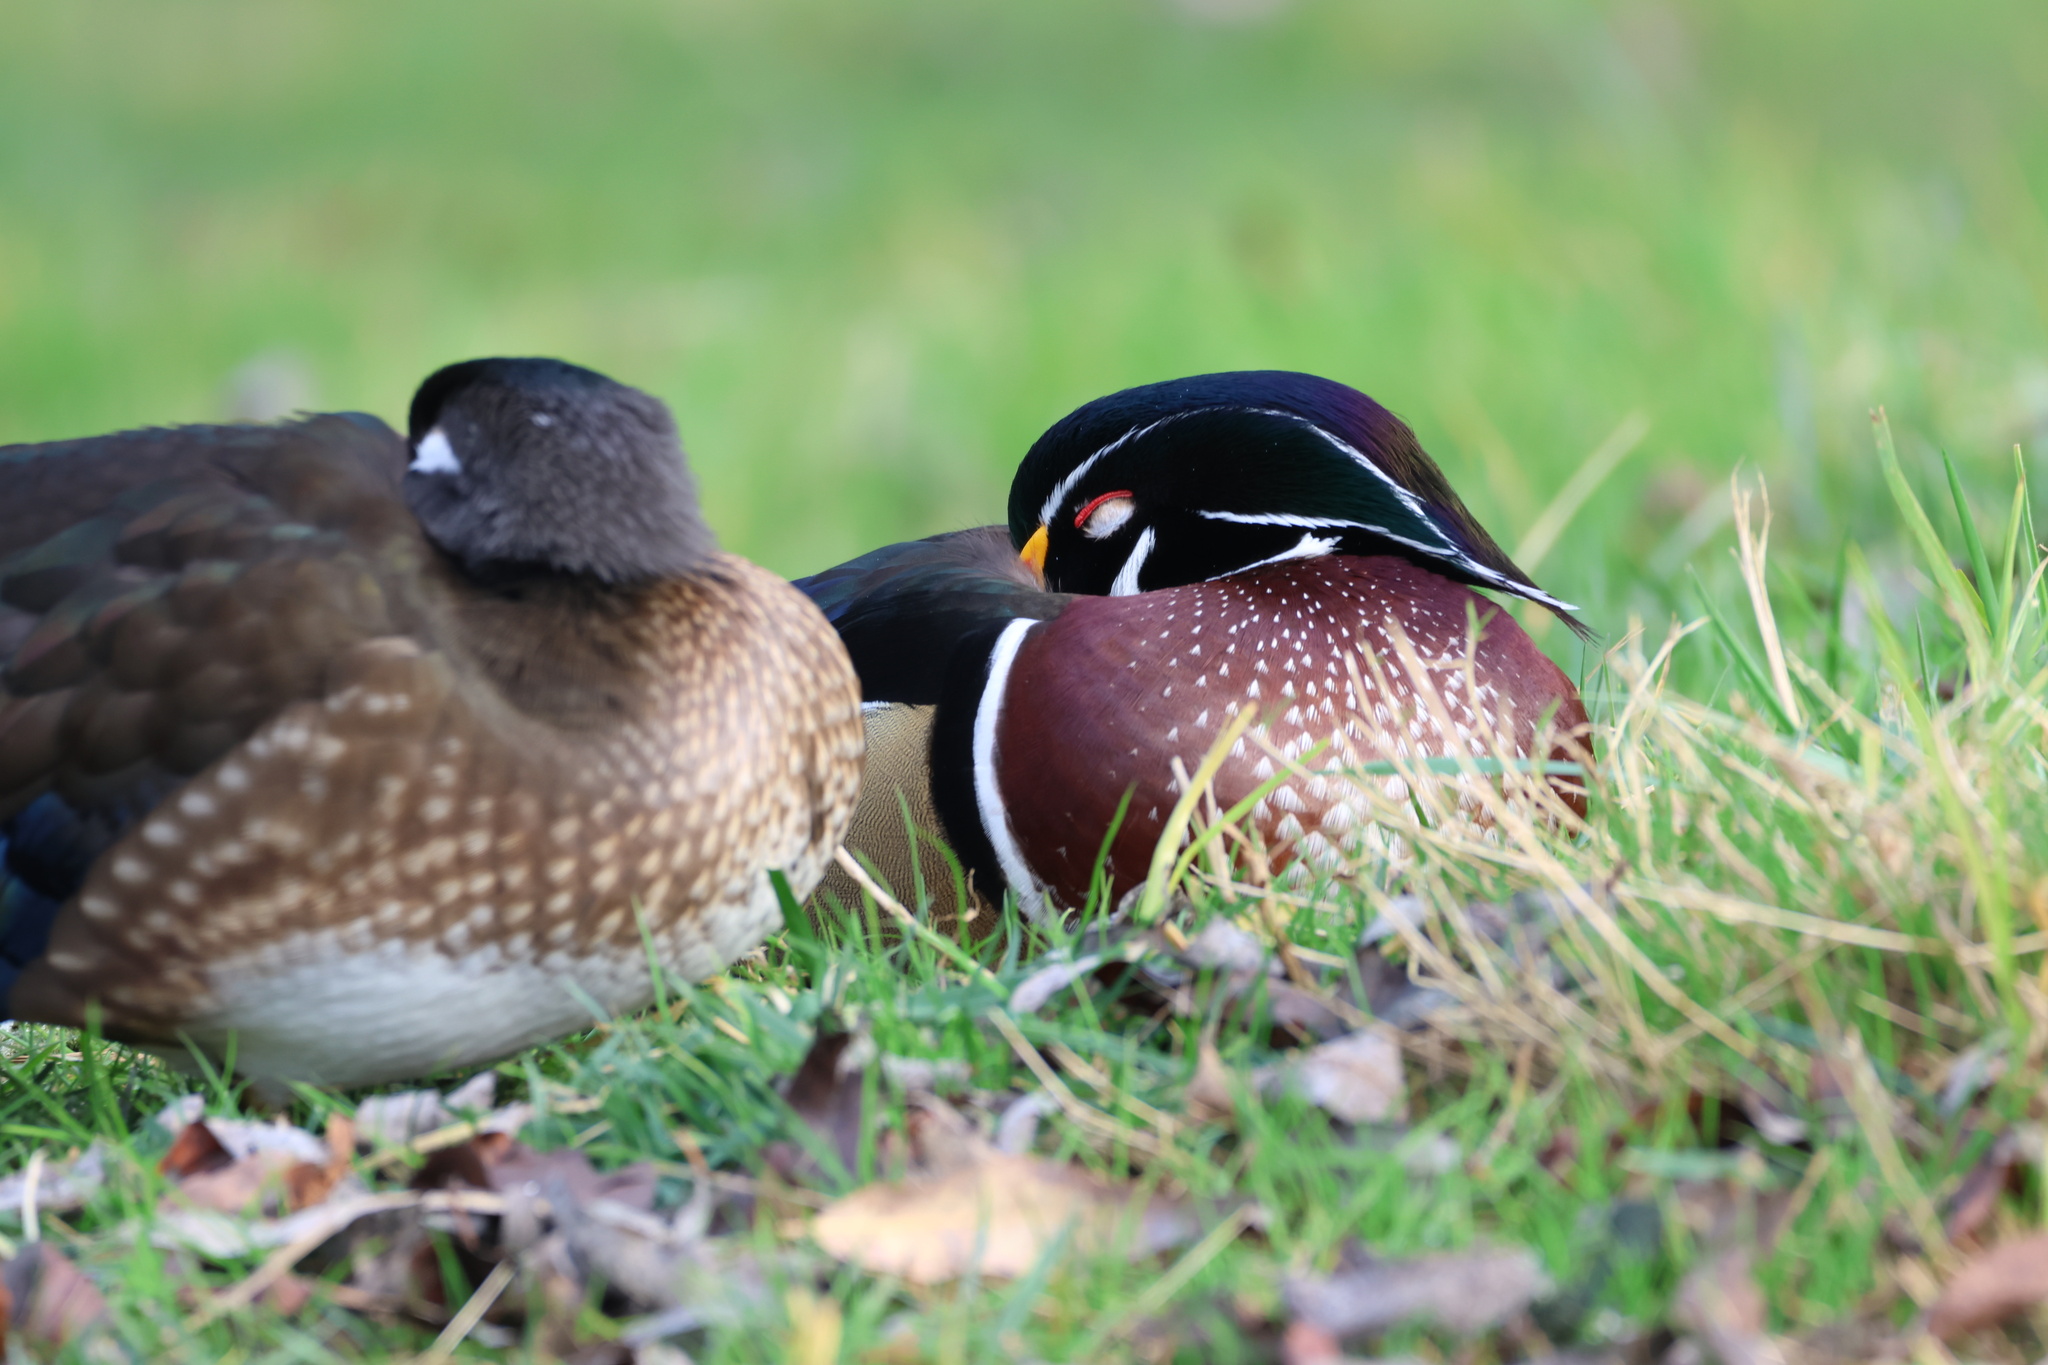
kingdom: Animalia
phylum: Chordata
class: Aves
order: Anseriformes
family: Anatidae
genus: Aix
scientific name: Aix sponsa
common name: Wood duck
